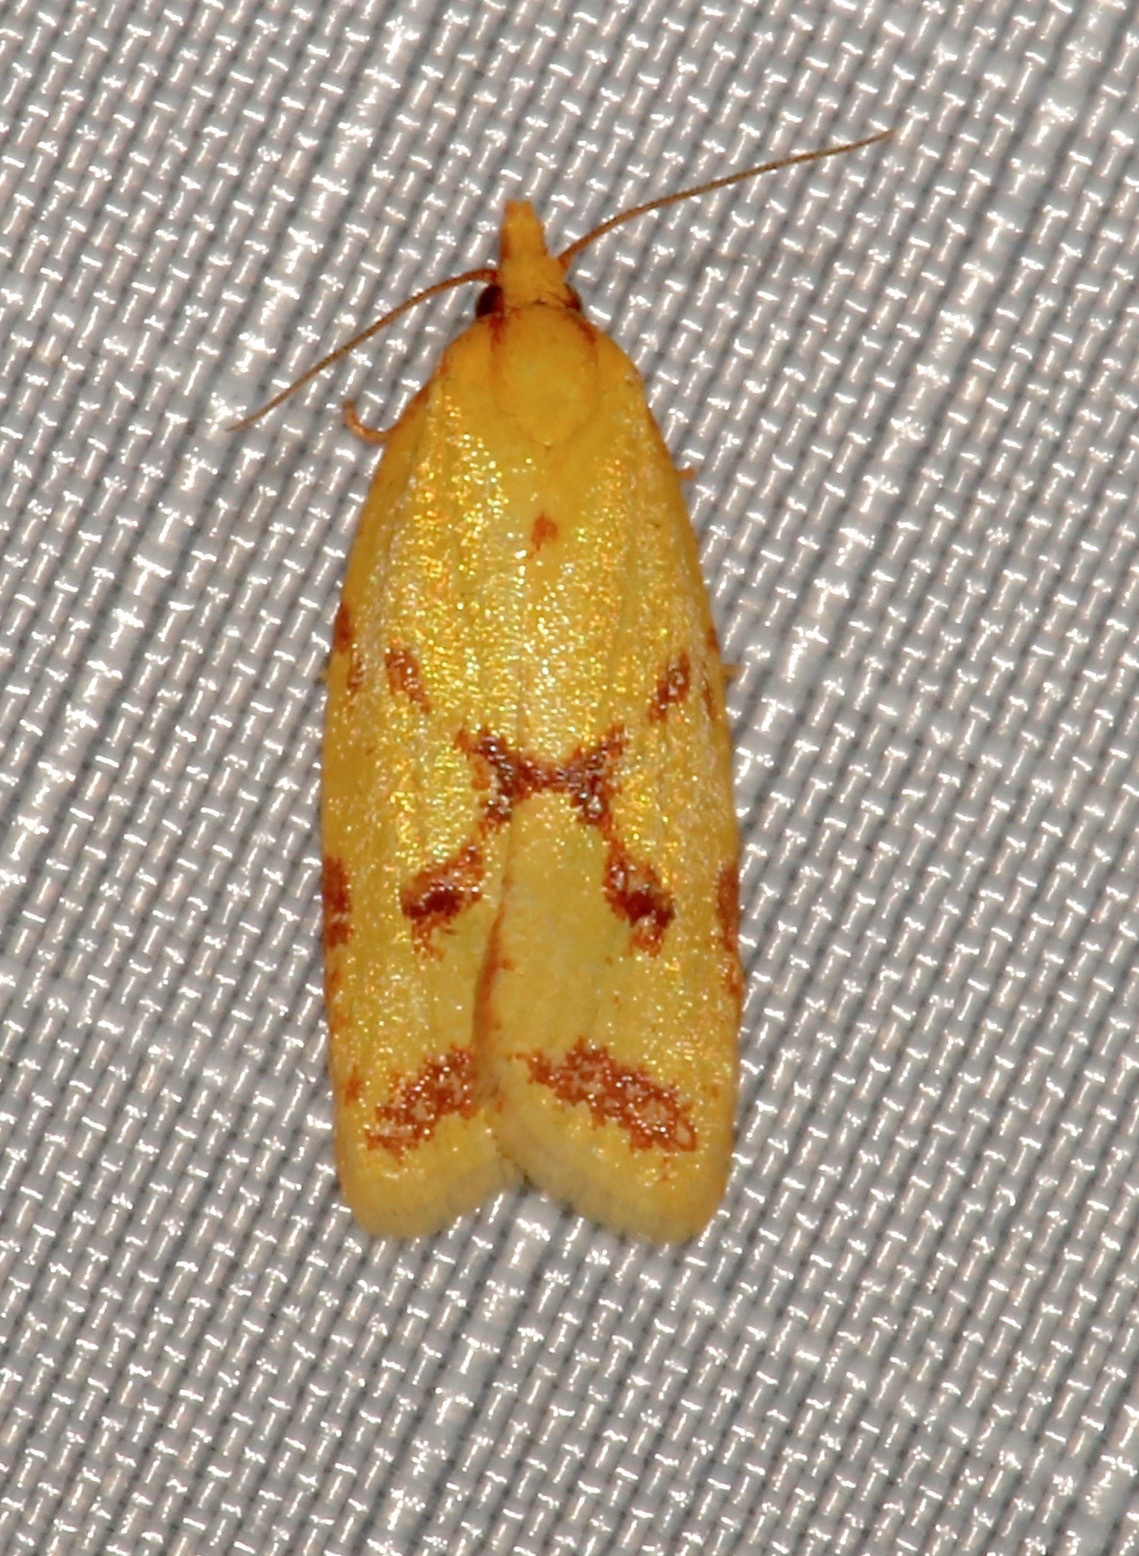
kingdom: Animalia
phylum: Arthropoda
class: Insecta
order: Lepidoptera
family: Tortricidae
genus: Sparganothis
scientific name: Sparganothis sulfureana
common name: Sparganothis fruitworm moth
